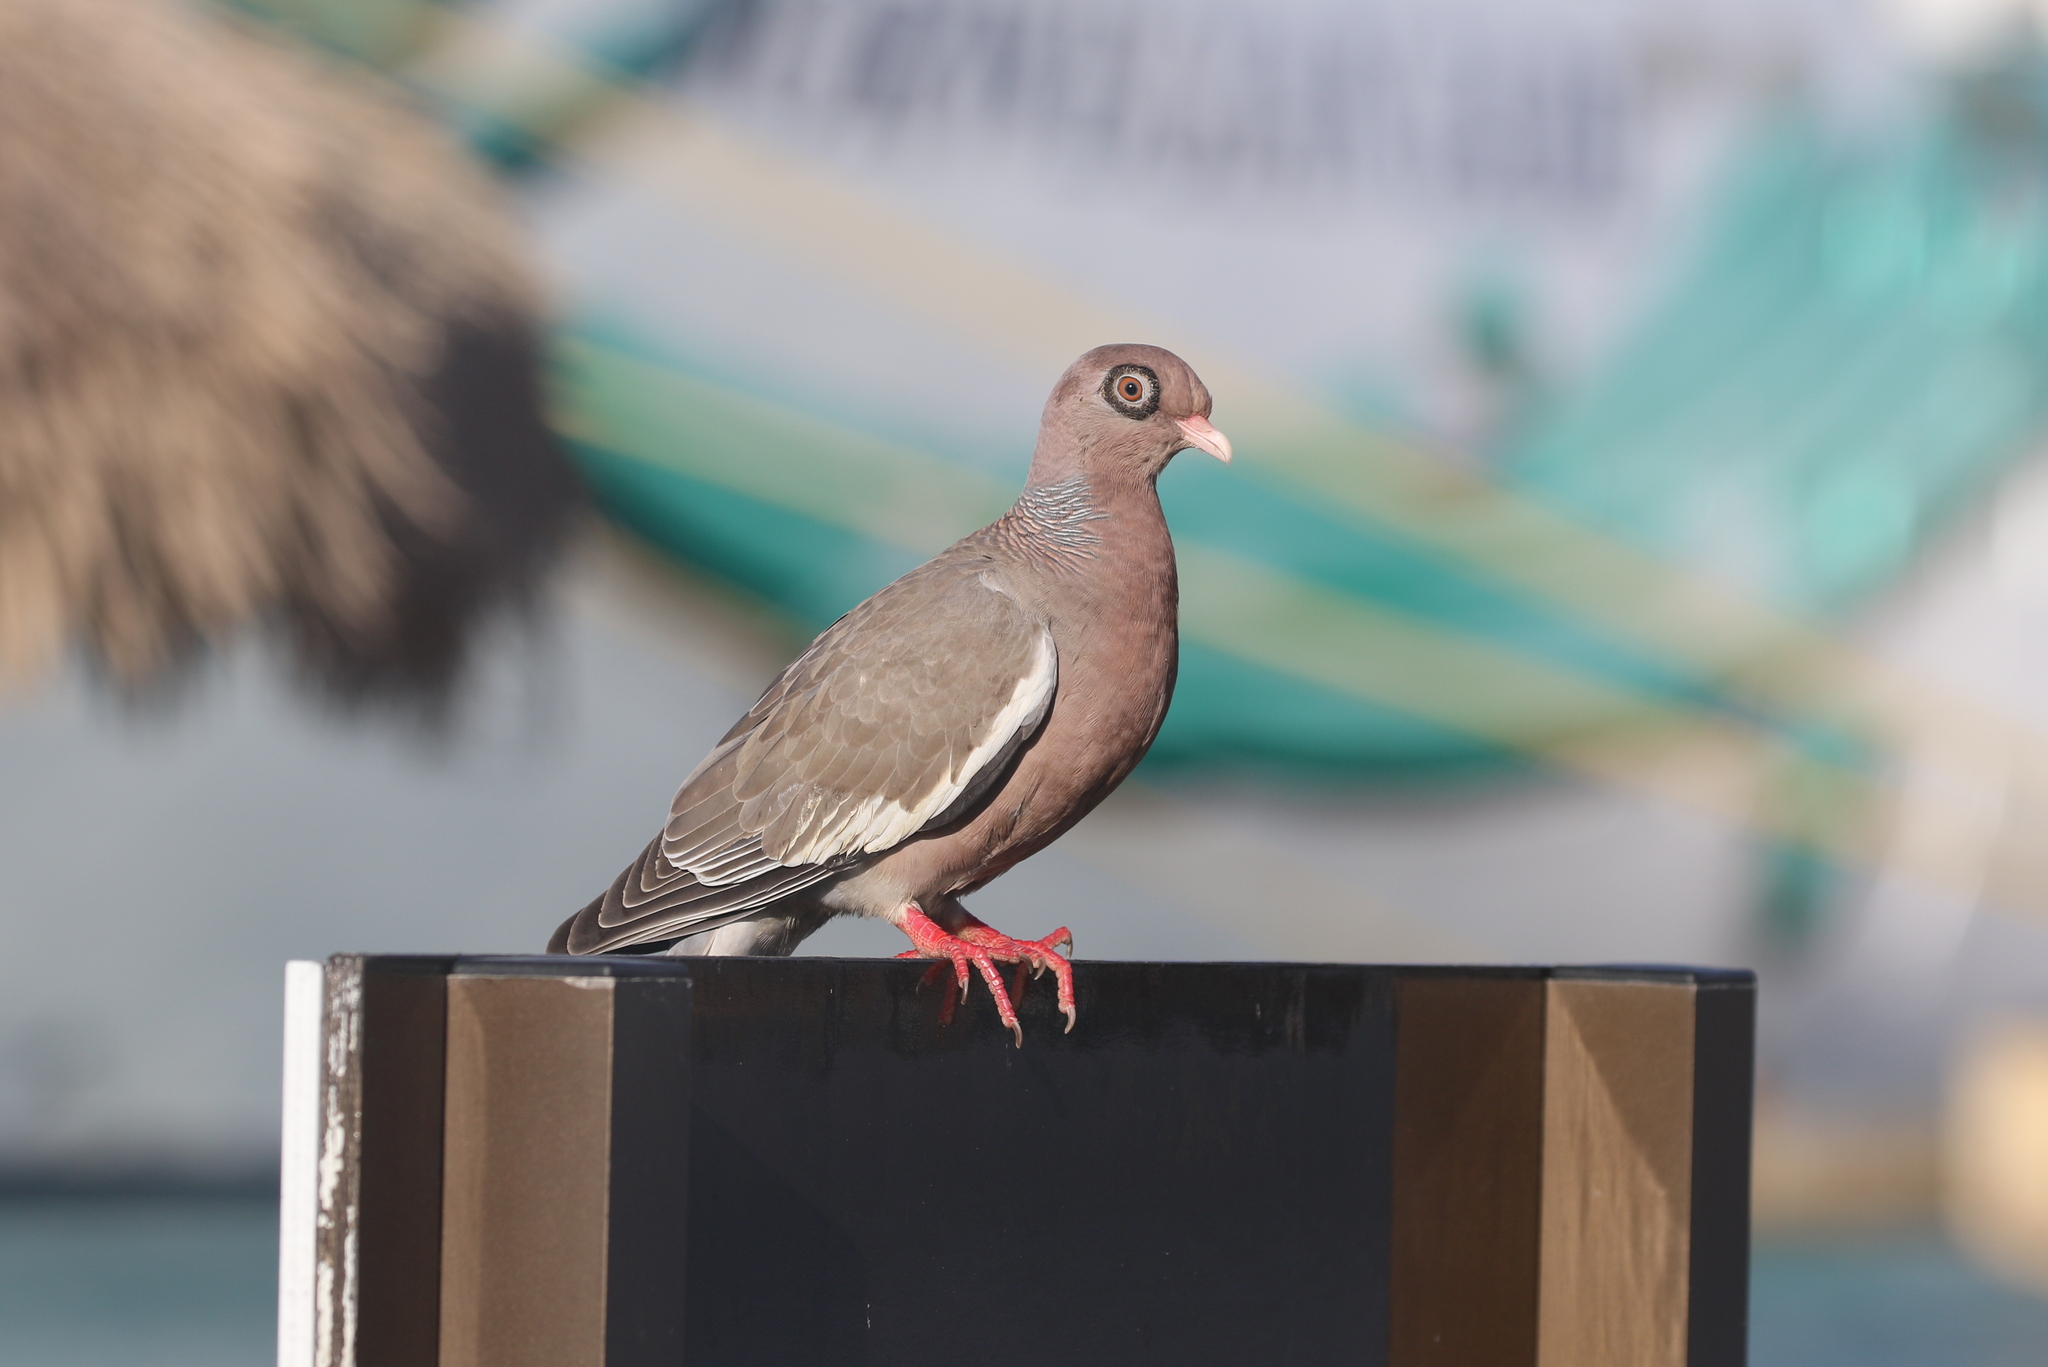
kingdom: Animalia
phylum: Chordata
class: Aves
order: Columbiformes
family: Columbidae
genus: Patagioenas
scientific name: Patagioenas corensis
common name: Bare-eyed pigeon
